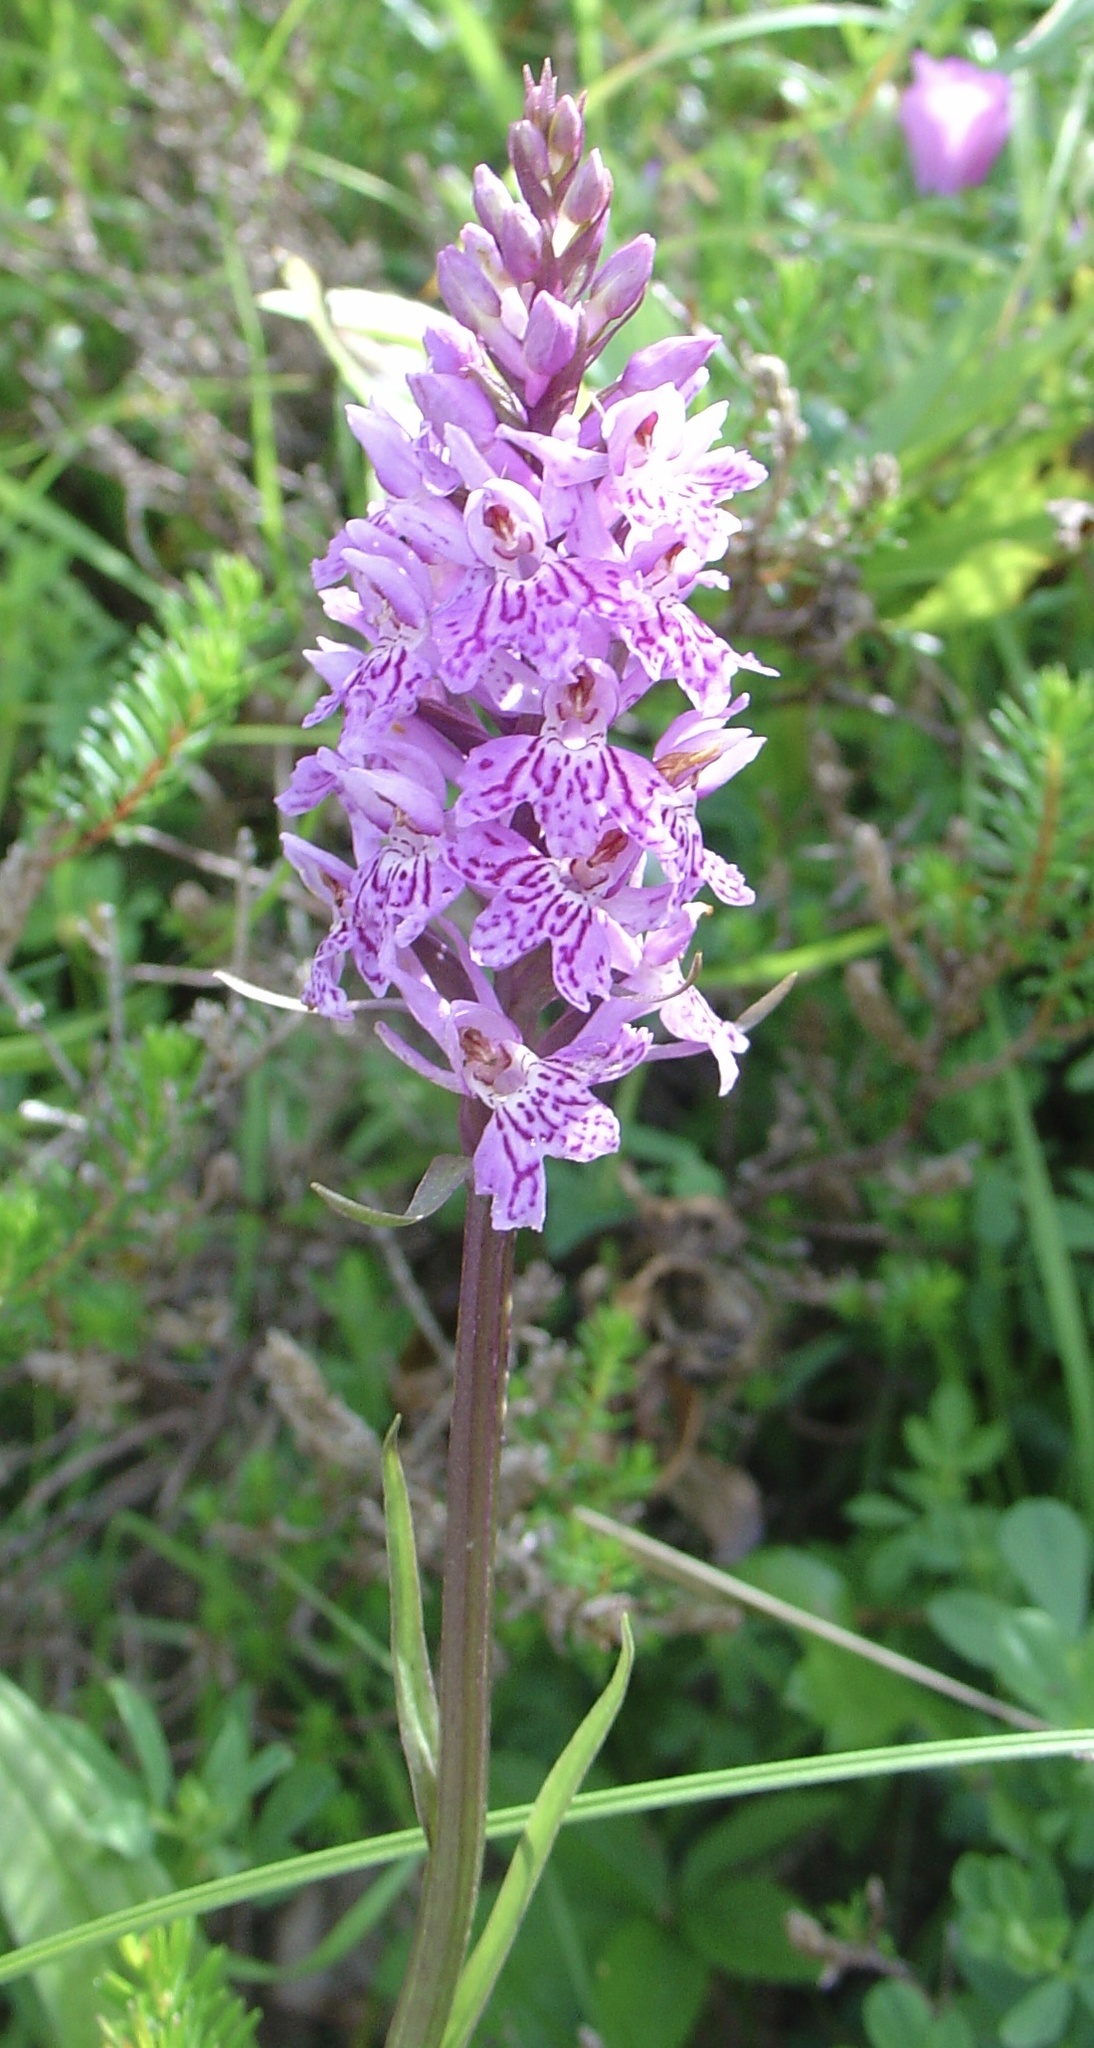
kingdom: Plantae
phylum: Tracheophyta
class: Liliopsida
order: Asparagales
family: Orchidaceae
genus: Dactylorhiza
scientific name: Dactylorhiza maculata
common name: Heath spotted-orchid
